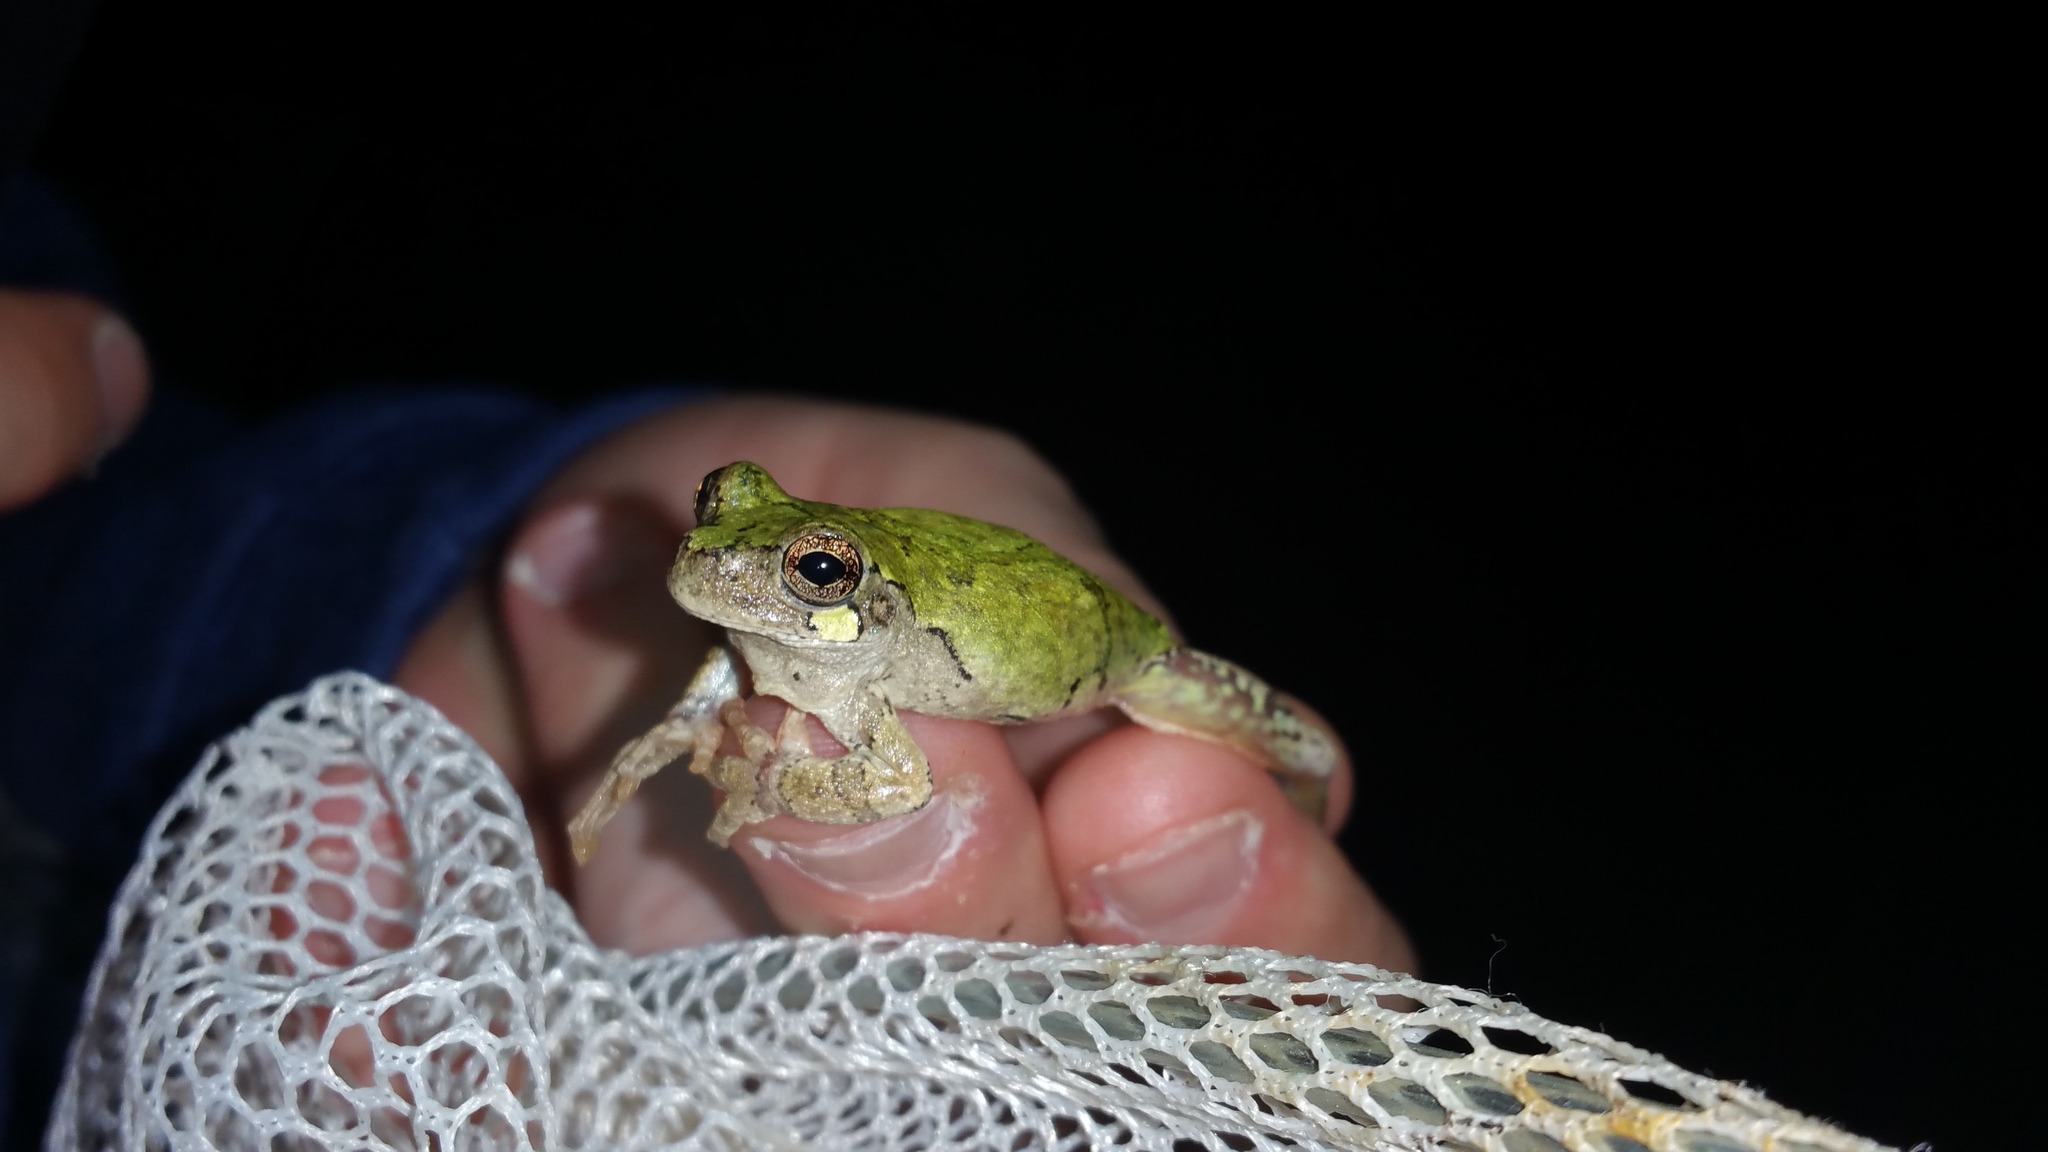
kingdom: Animalia
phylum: Chordata
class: Amphibia
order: Anura
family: Hylidae
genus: Dryophytes
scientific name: Dryophytes avivoca
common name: Bird-voiced treefrog
